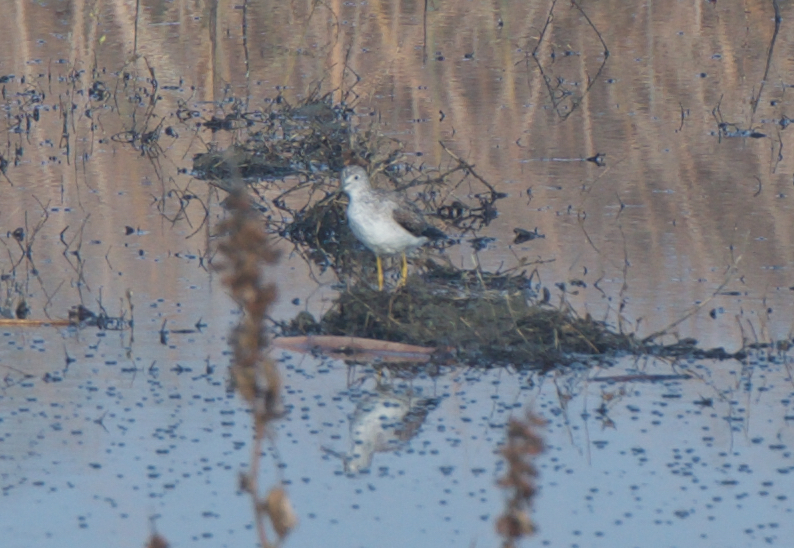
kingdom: Animalia
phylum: Chordata
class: Aves
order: Charadriiformes
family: Scolopacidae
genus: Tringa
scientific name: Tringa melanoleuca
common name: Greater yellowlegs
